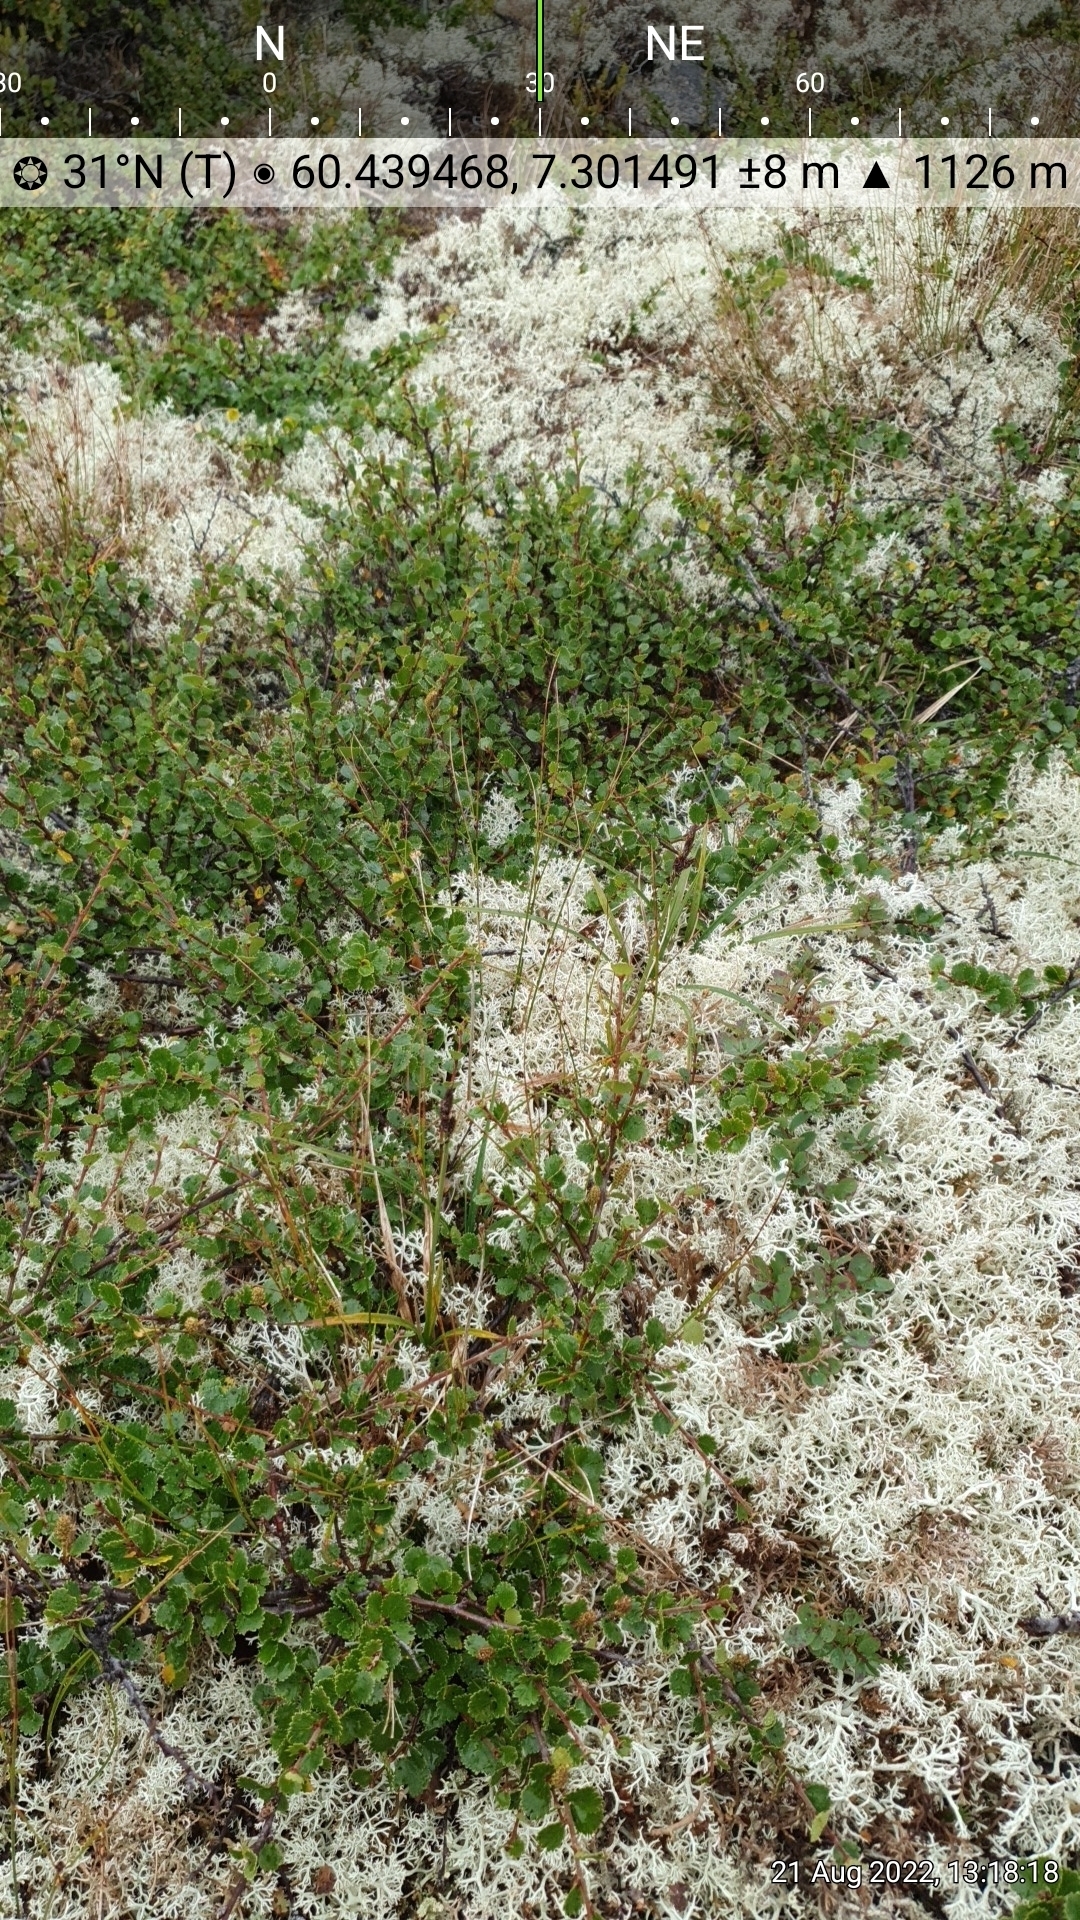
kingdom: Plantae
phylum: Tracheophyta
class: Liliopsida
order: Poales
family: Cyperaceae
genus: Carex
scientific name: Carex bigelowii
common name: Stiff sedge
